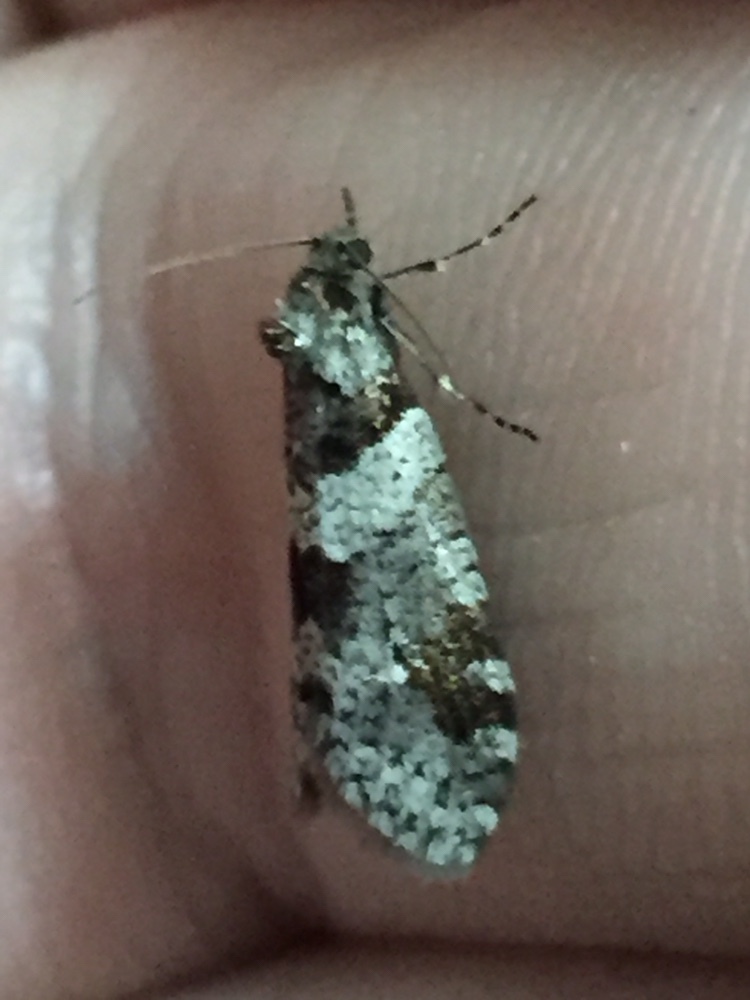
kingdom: Animalia
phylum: Arthropoda
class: Insecta
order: Lepidoptera
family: Psychidae
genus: Lepidoscia
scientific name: Lepidoscia heliochares
